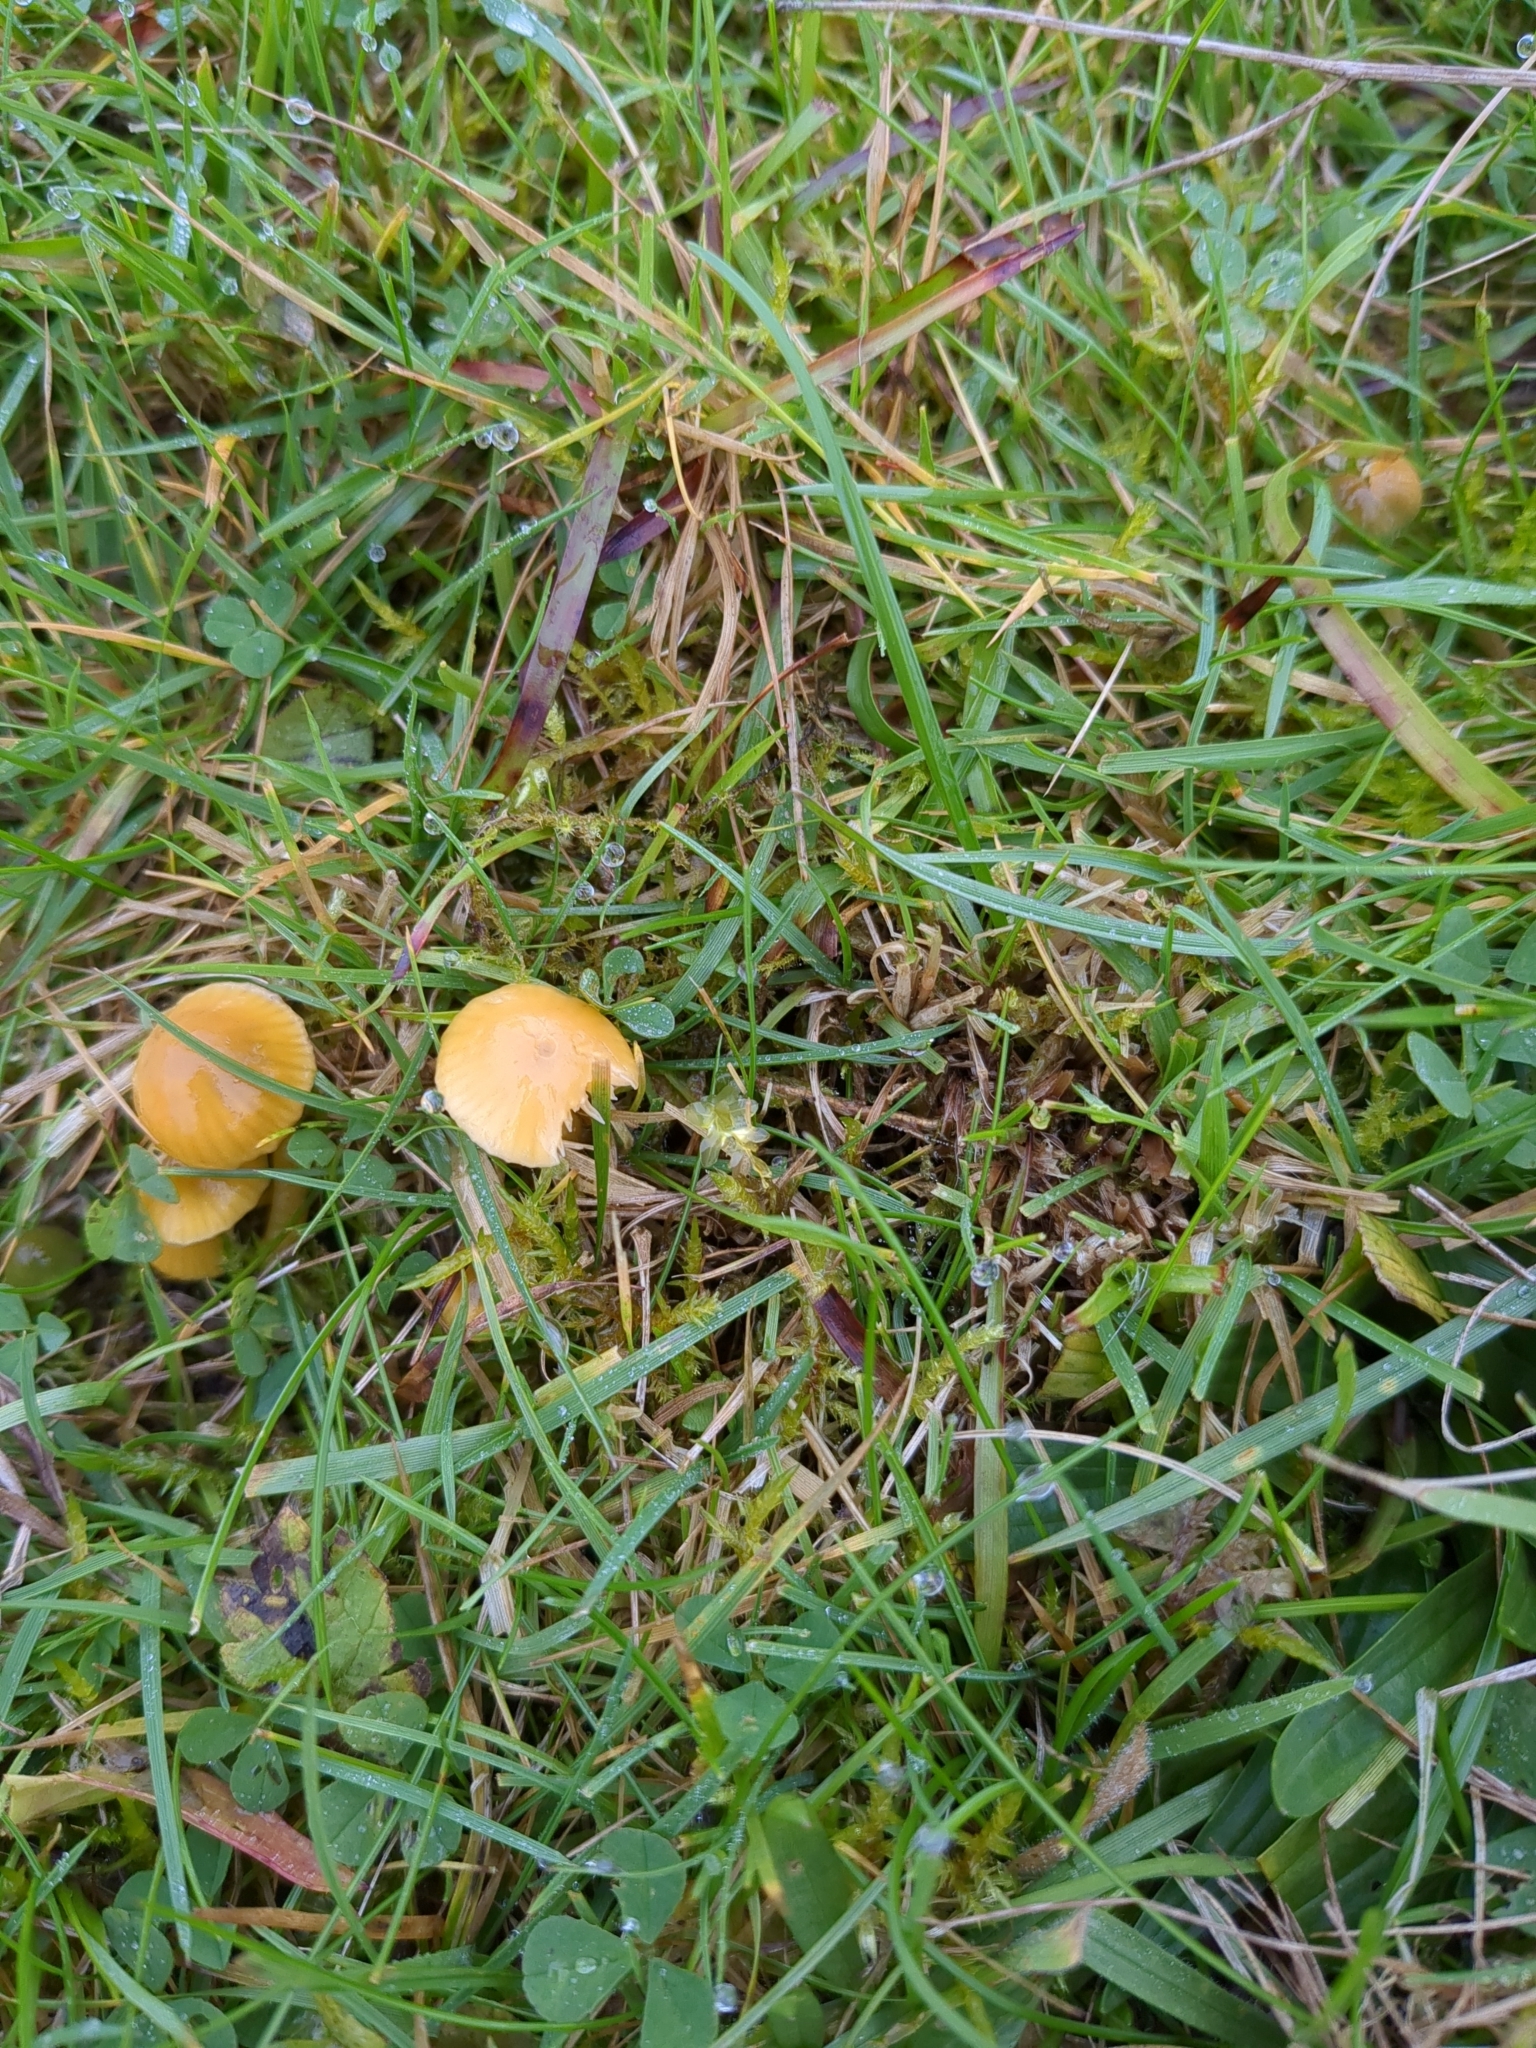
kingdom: Fungi
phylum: Basidiomycota
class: Agaricomycetes
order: Agaricales
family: Hygrophoraceae
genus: Gliophorus
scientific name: Gliophorus psittacinus
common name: Parrot wax-cap
